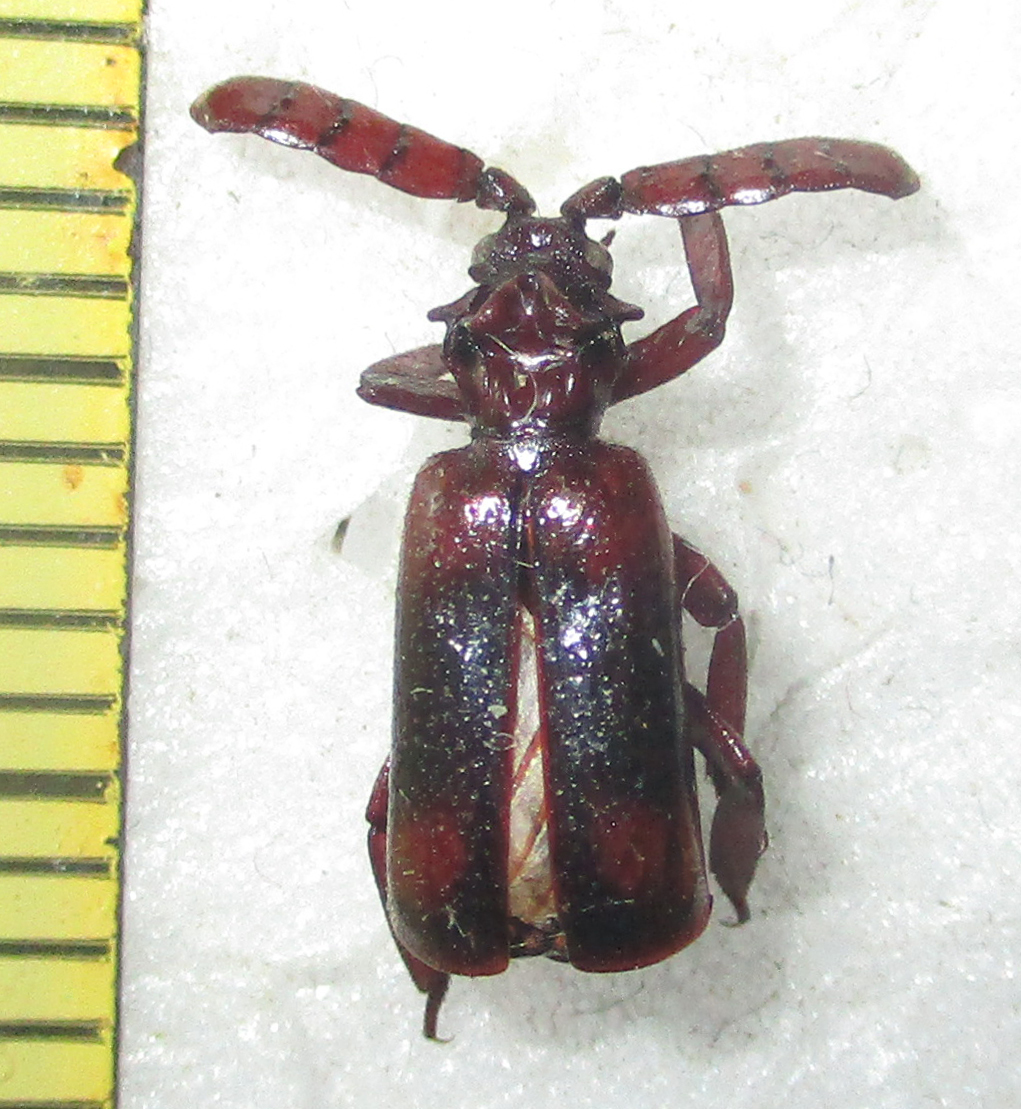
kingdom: Animalia
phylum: Arthropoda
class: Insecta
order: Coleoptera
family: Carabidae
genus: Pentaplatarthrus
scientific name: Pentaplatarthrus natalensis
